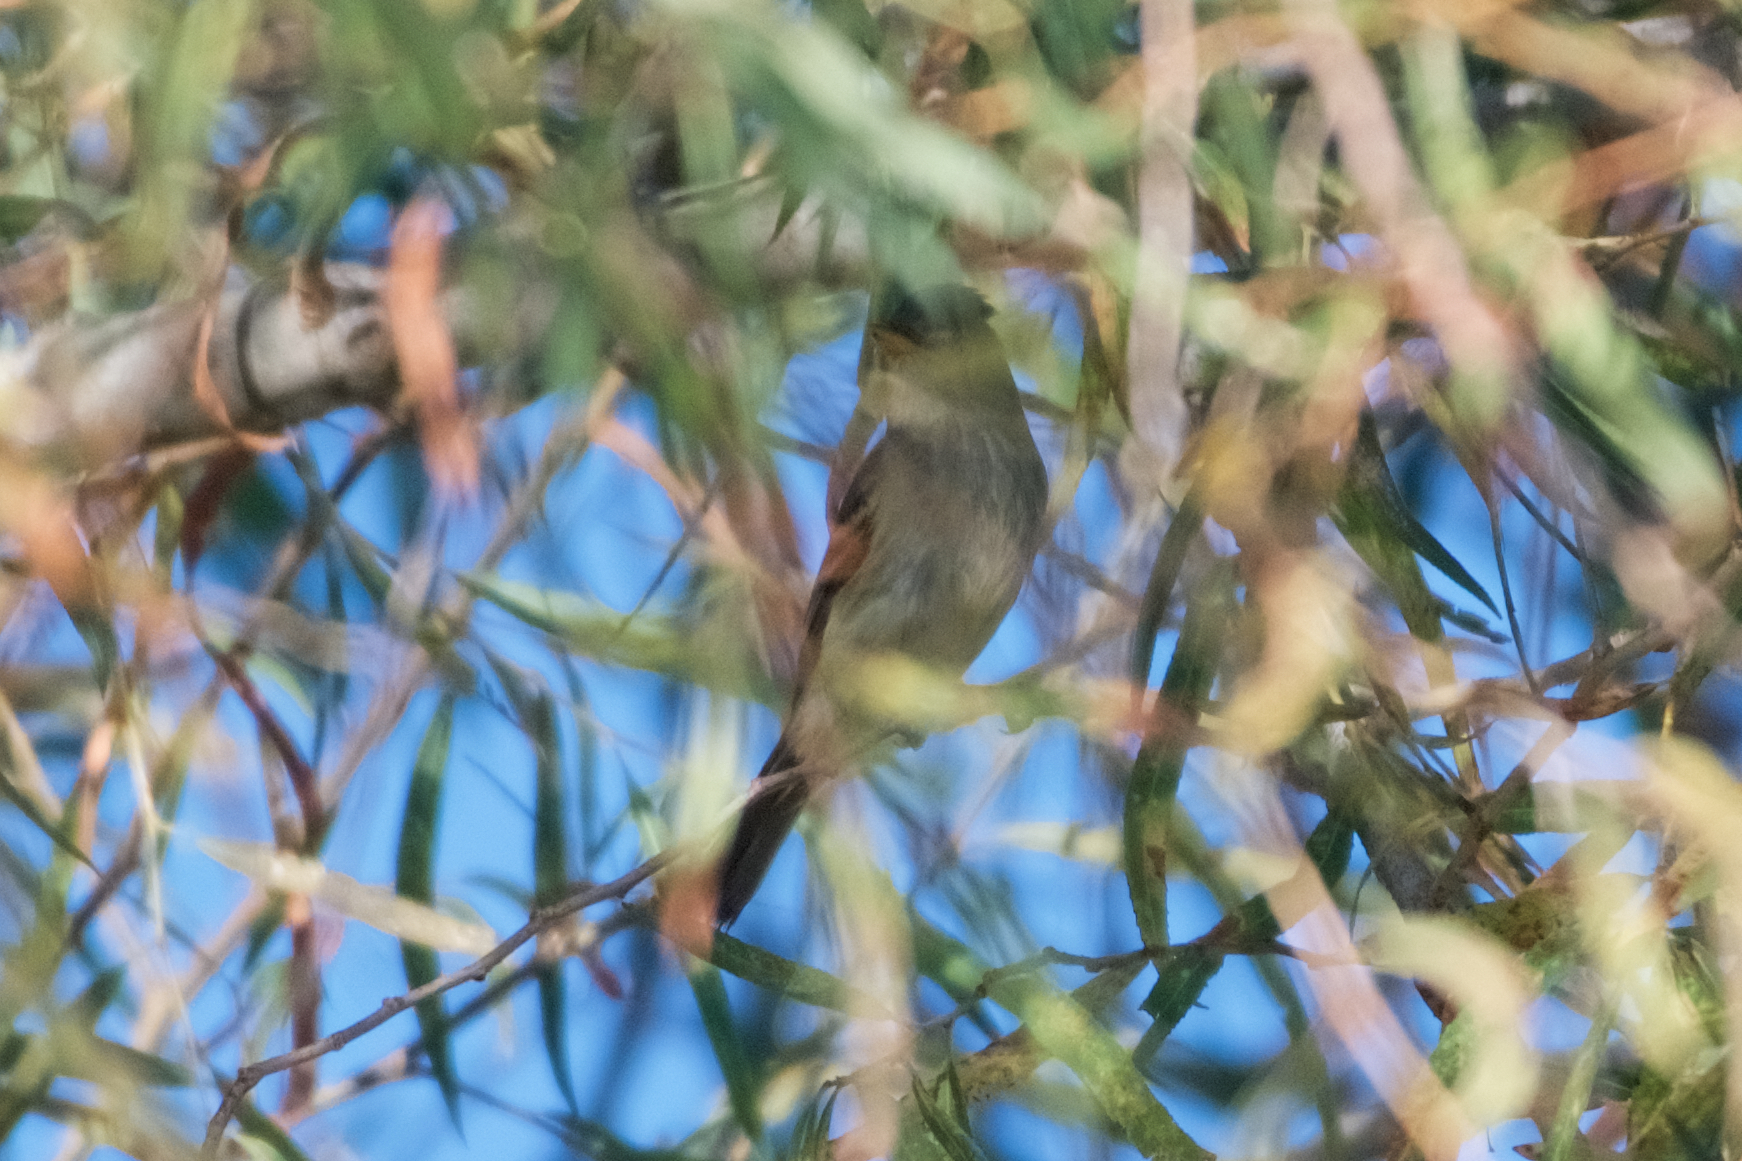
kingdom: Animalia
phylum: Chordata
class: Aves
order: Passeriformes
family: Tyrannidae
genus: Empidonax
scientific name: Empidonax
